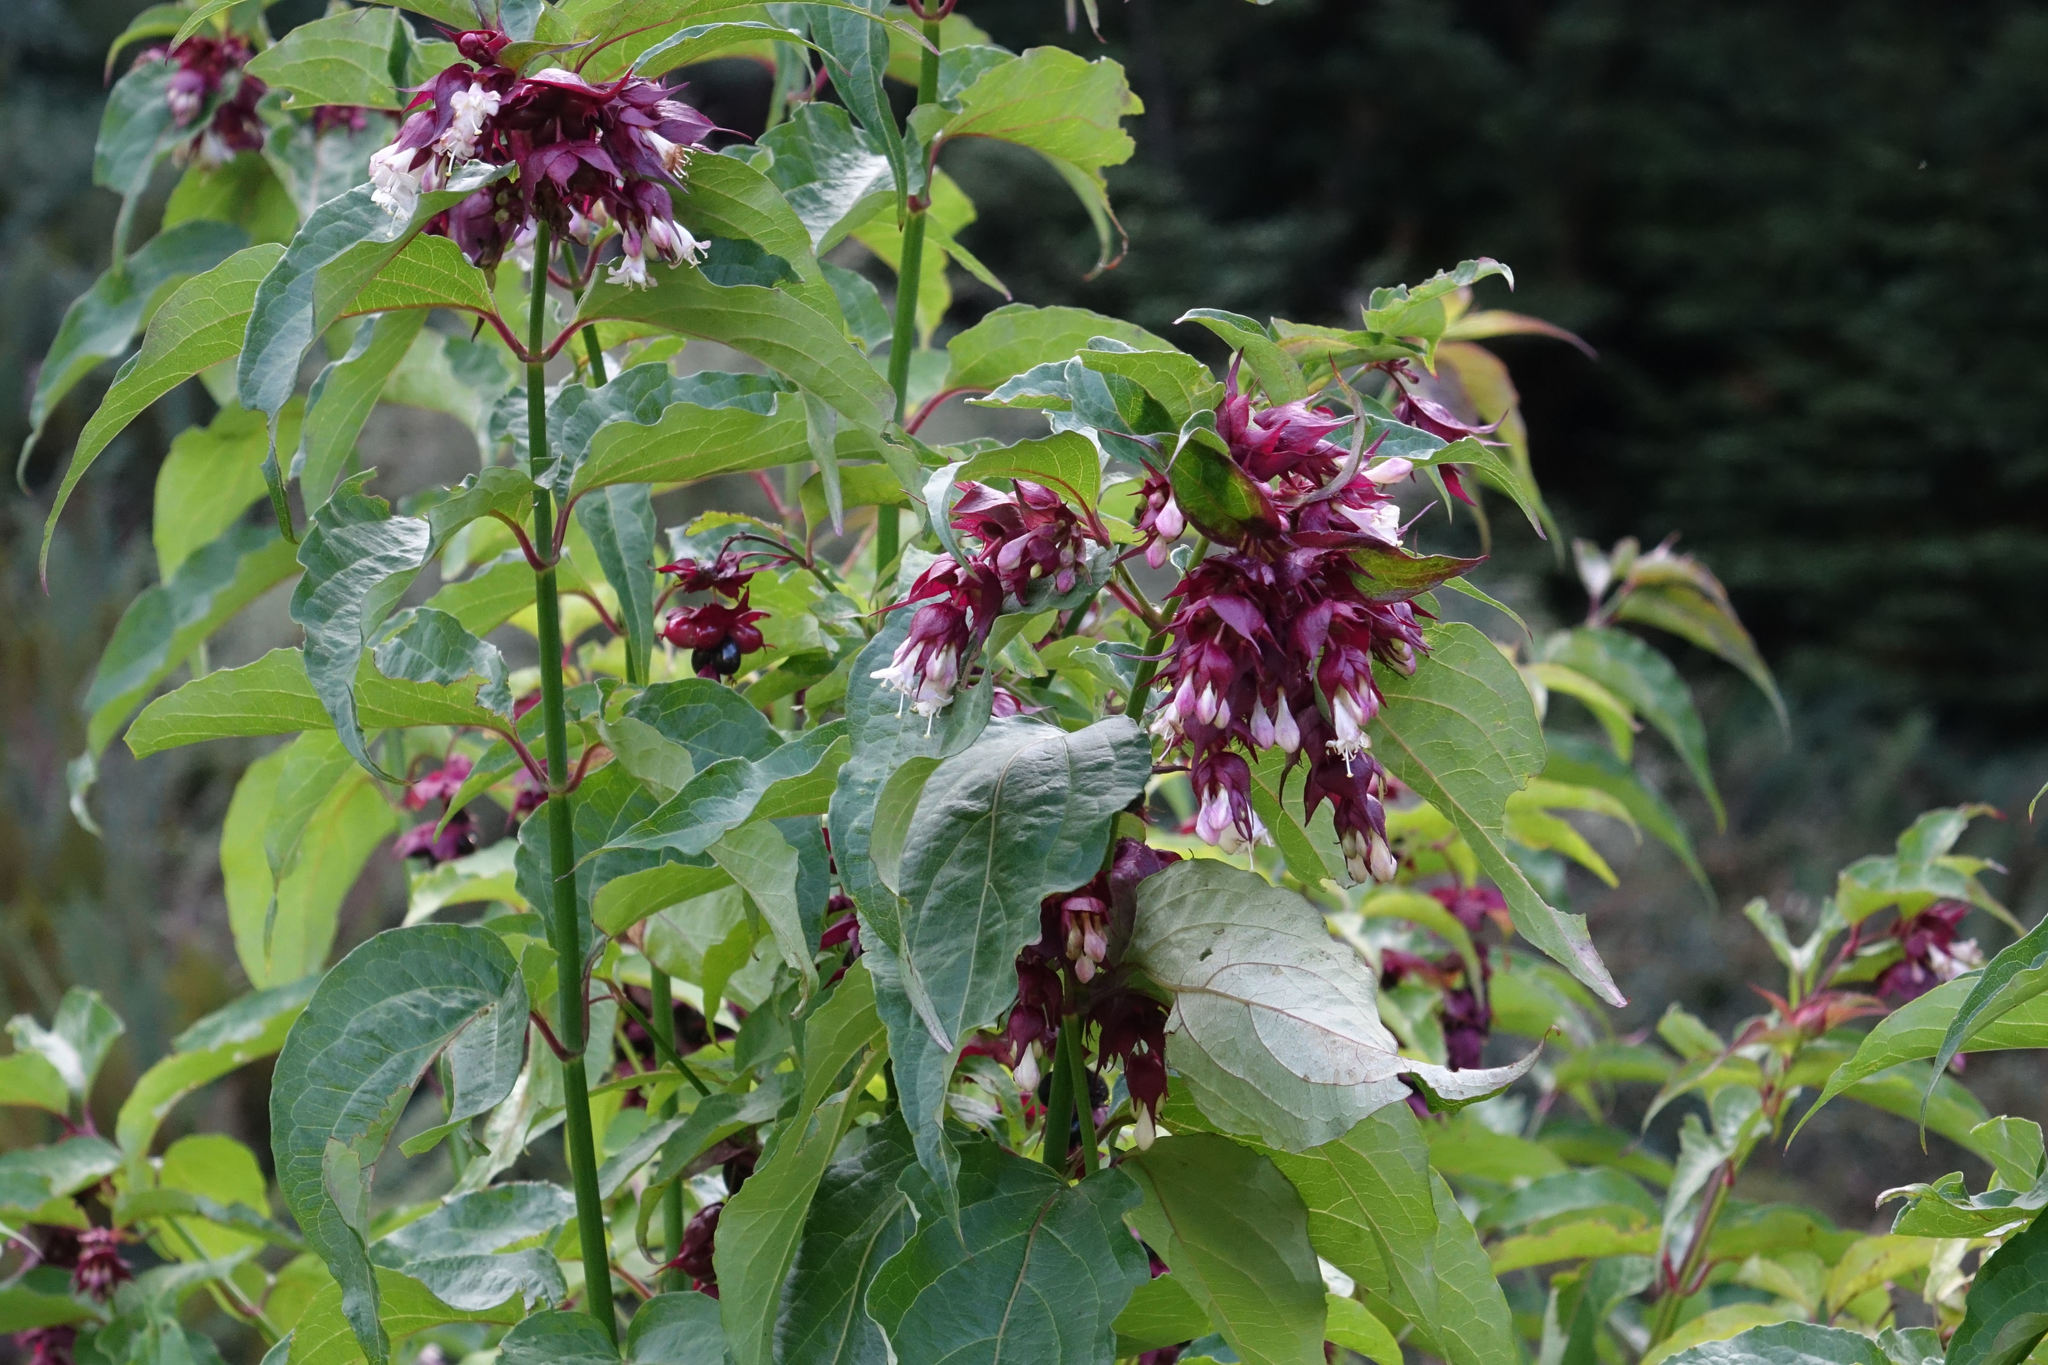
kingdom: Plantae
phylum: Tracheophyta
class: Magnoliopsida
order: Dipsacales
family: Caprifoliaceae
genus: Leycesteria
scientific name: Leycesteria formosa
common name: Himalayan honeysuckle
